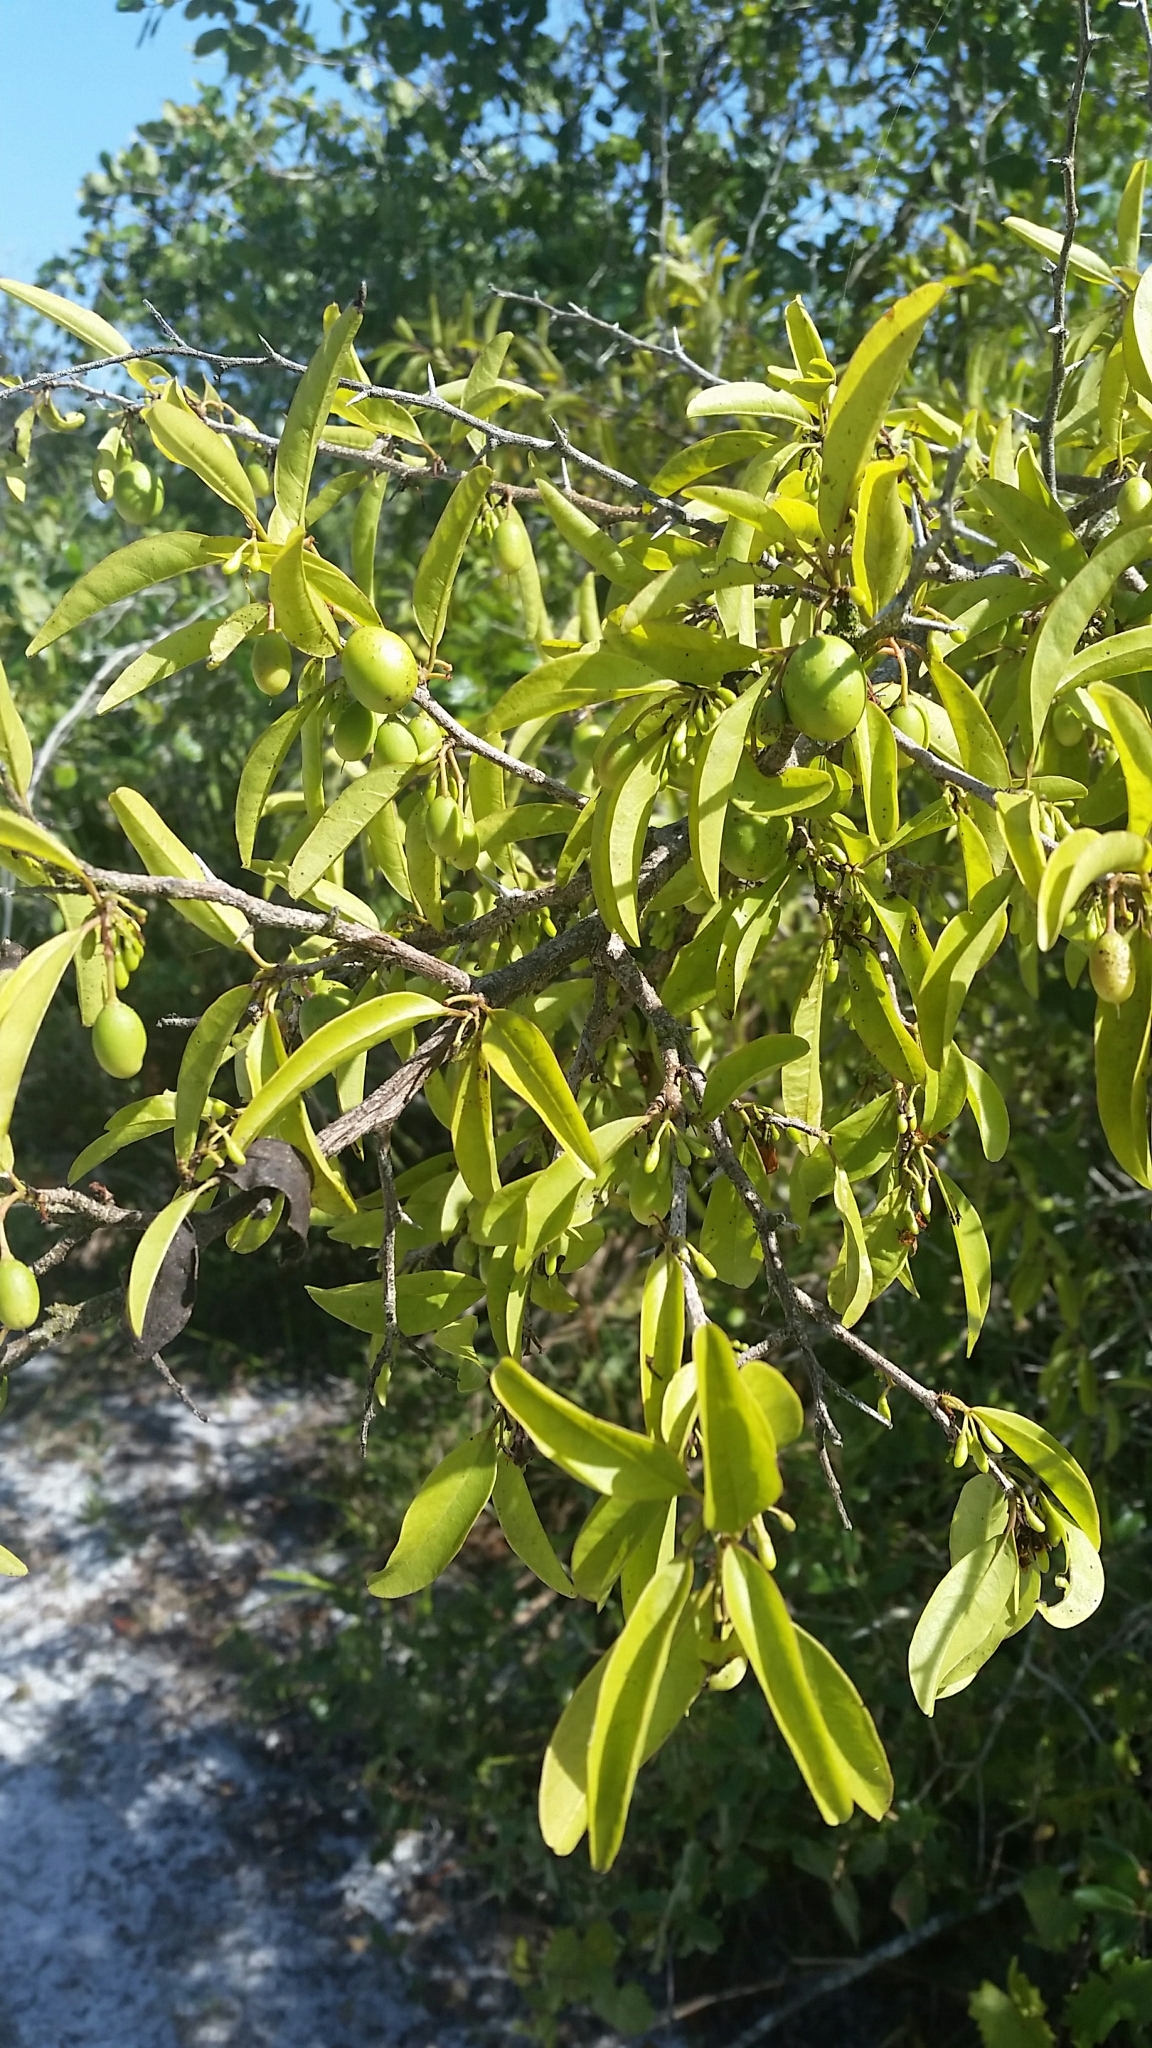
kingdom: Plantae
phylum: Tracheophyta
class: Magnoliopsida
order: Santalales
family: Ximeniaceae
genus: Ximenia
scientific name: Ximenia americana
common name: Tallowwood
